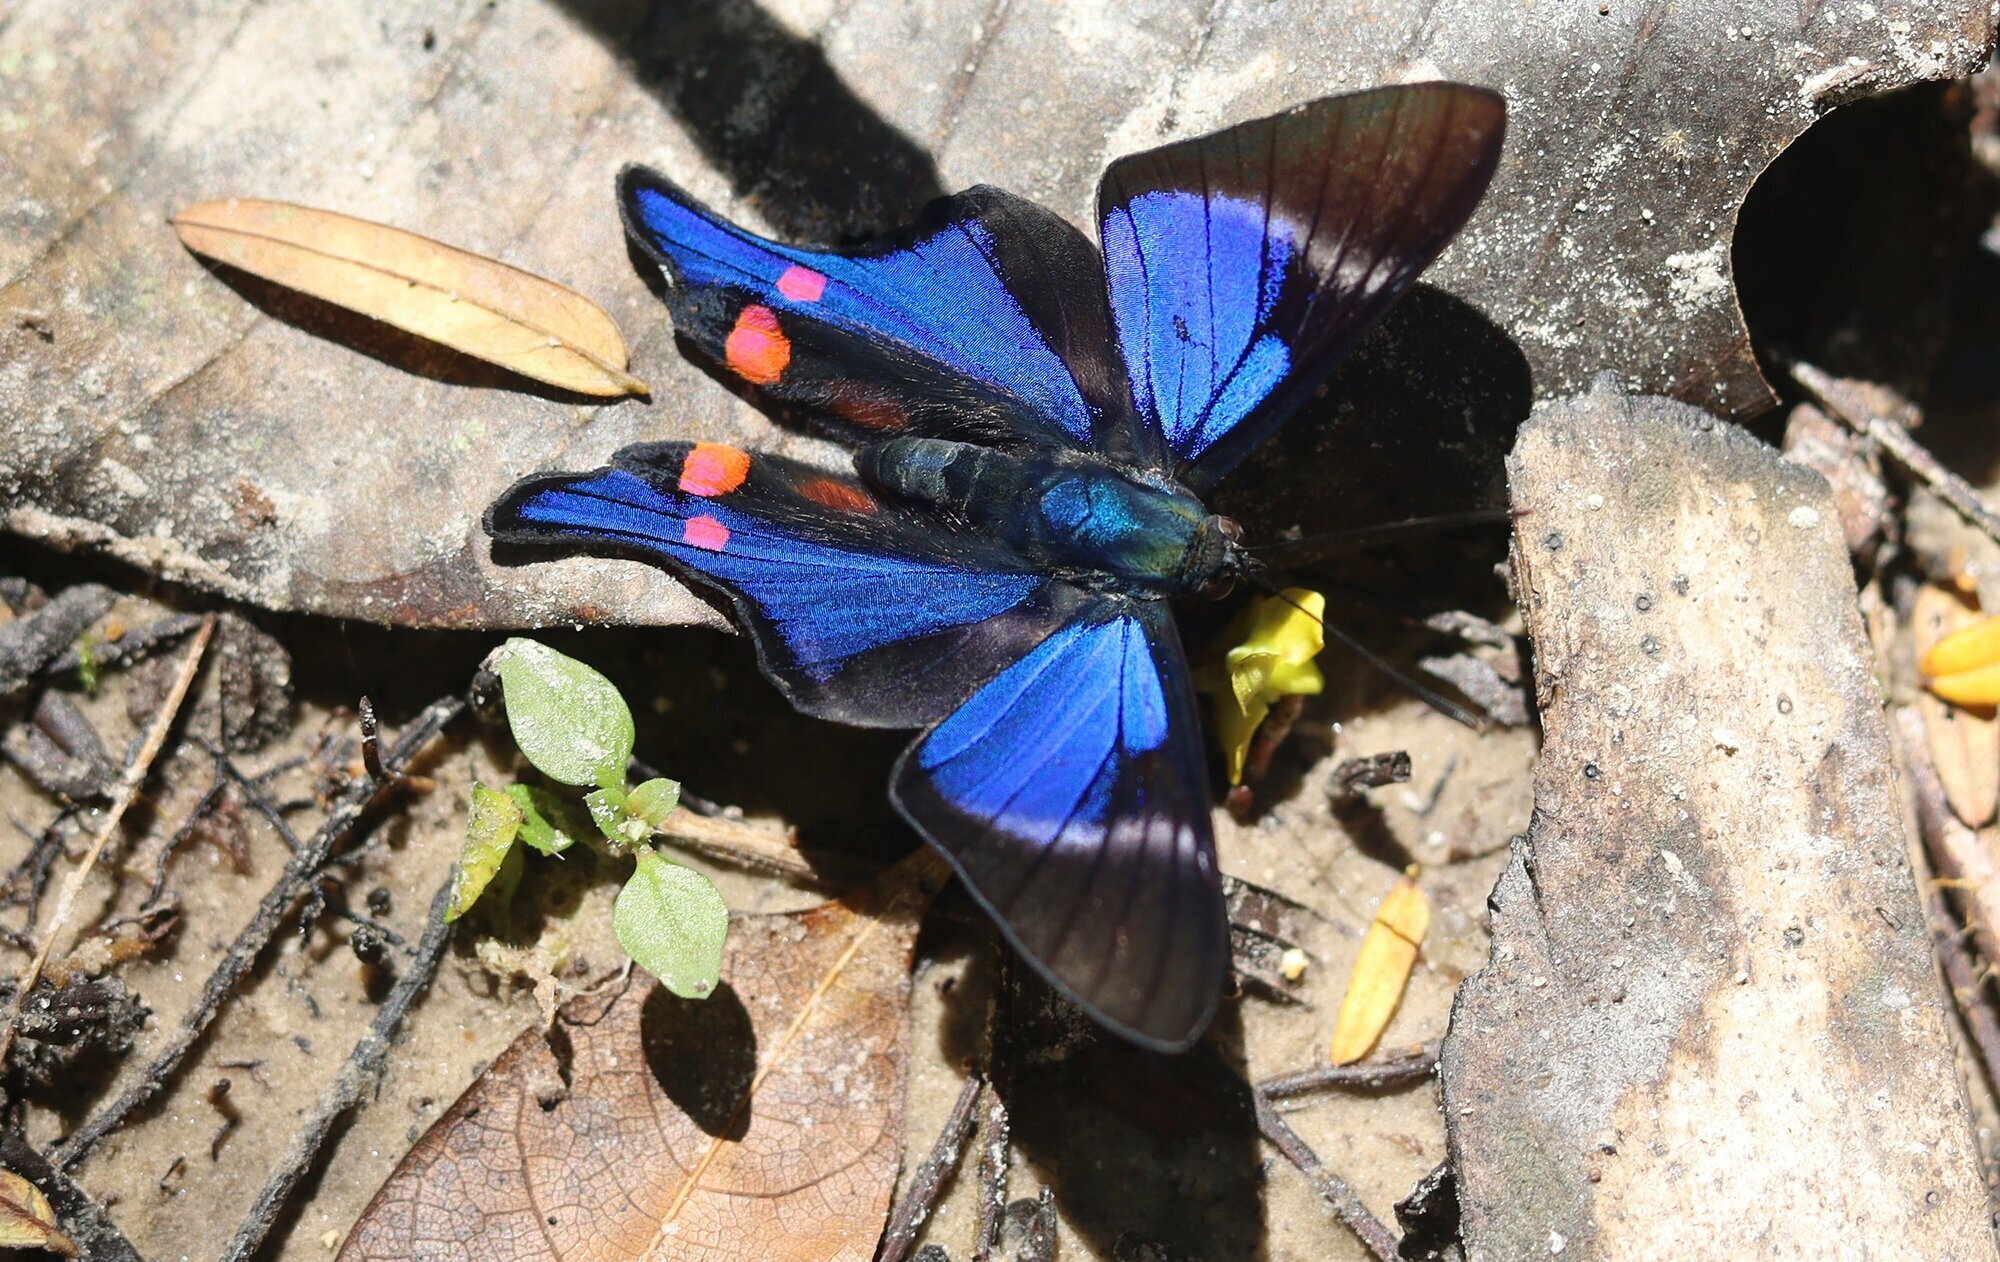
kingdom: Animalia
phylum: Arthropoda
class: Insecta
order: Lepidoptera
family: Riodinidae
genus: Rhetus
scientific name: Rhetus periander
